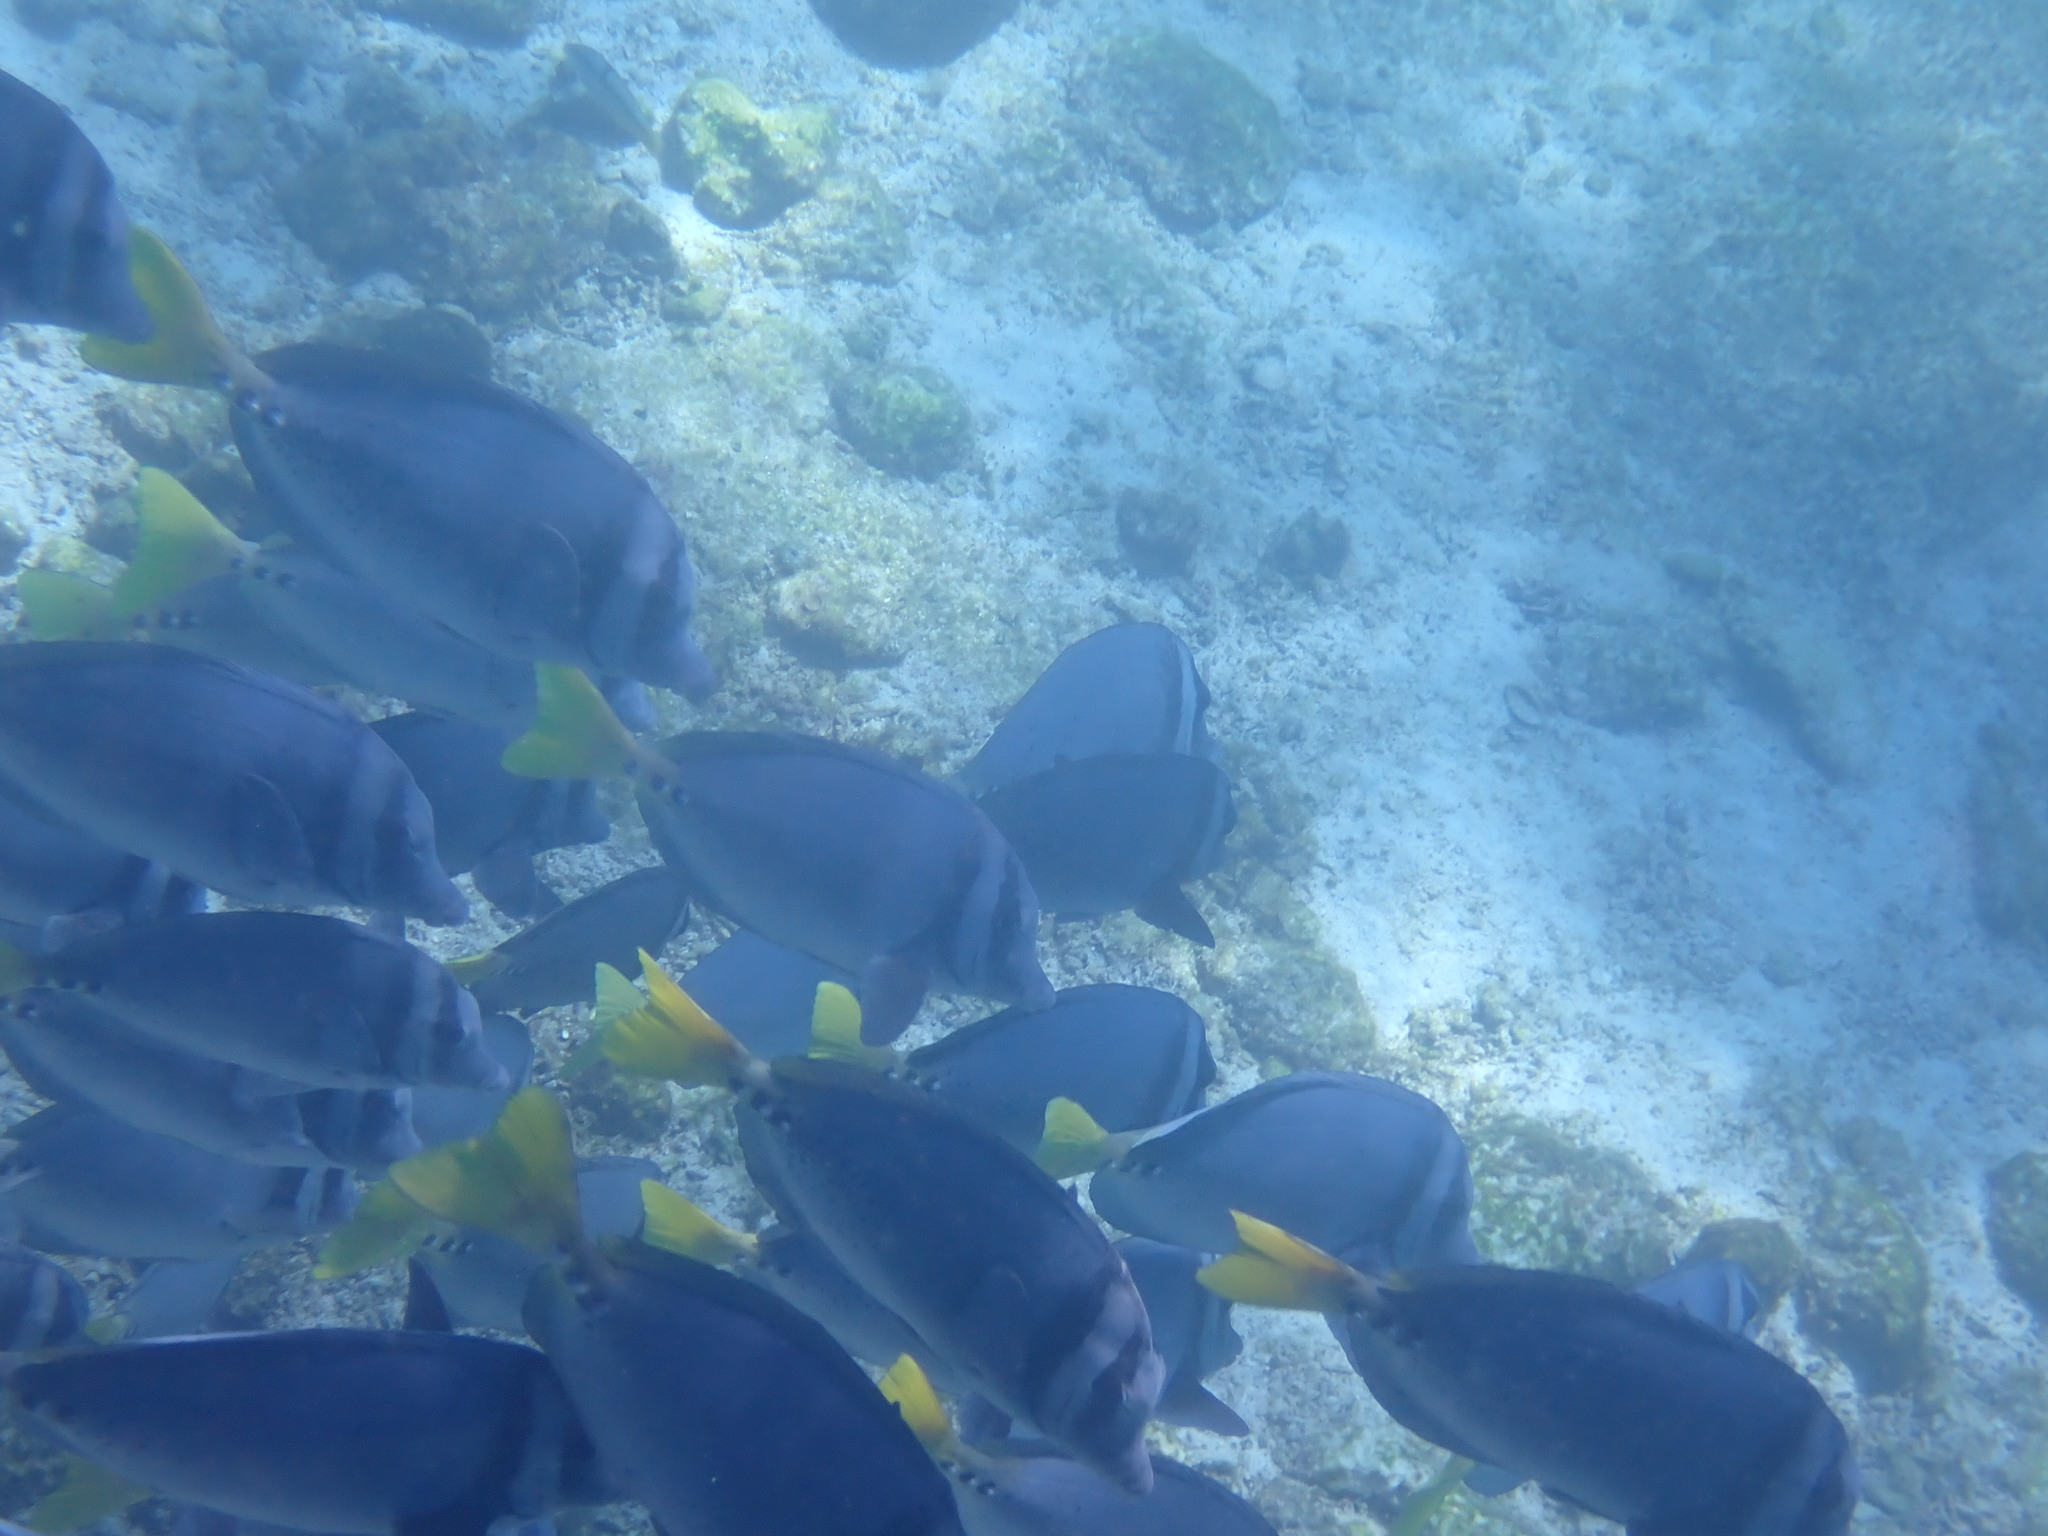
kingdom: Animalia
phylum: Chordata
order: Perciformes
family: Acanthuridae
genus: Prionurus
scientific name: Prionurus laticlavius
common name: Razor surgeonfish
